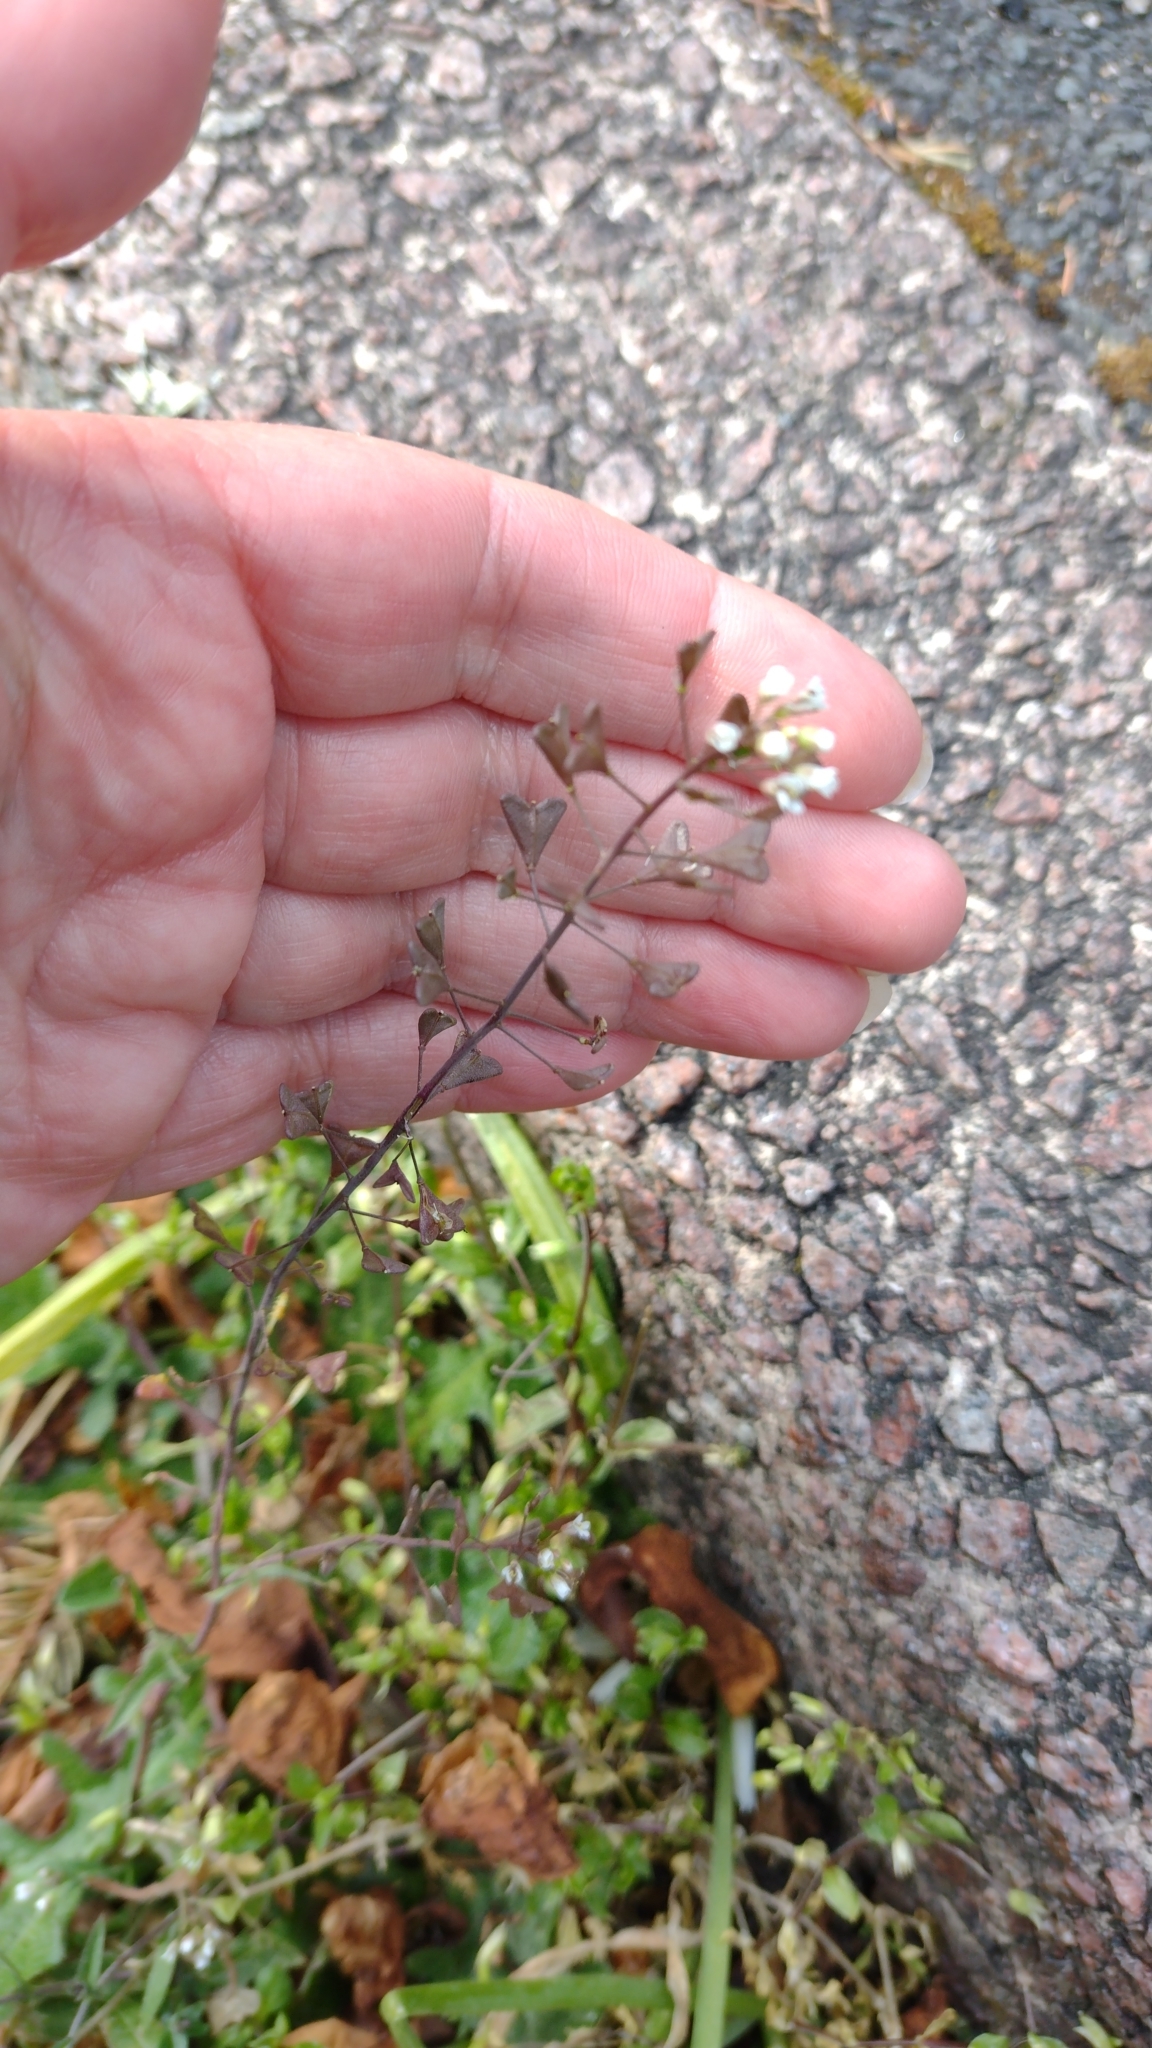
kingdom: Plantae
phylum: Tracheophyta
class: Magnoliopsida
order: Brassicales
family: Brassicaceae
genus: Capsella
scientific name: Capsella bursa-pastoris
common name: Shepherd's purse
